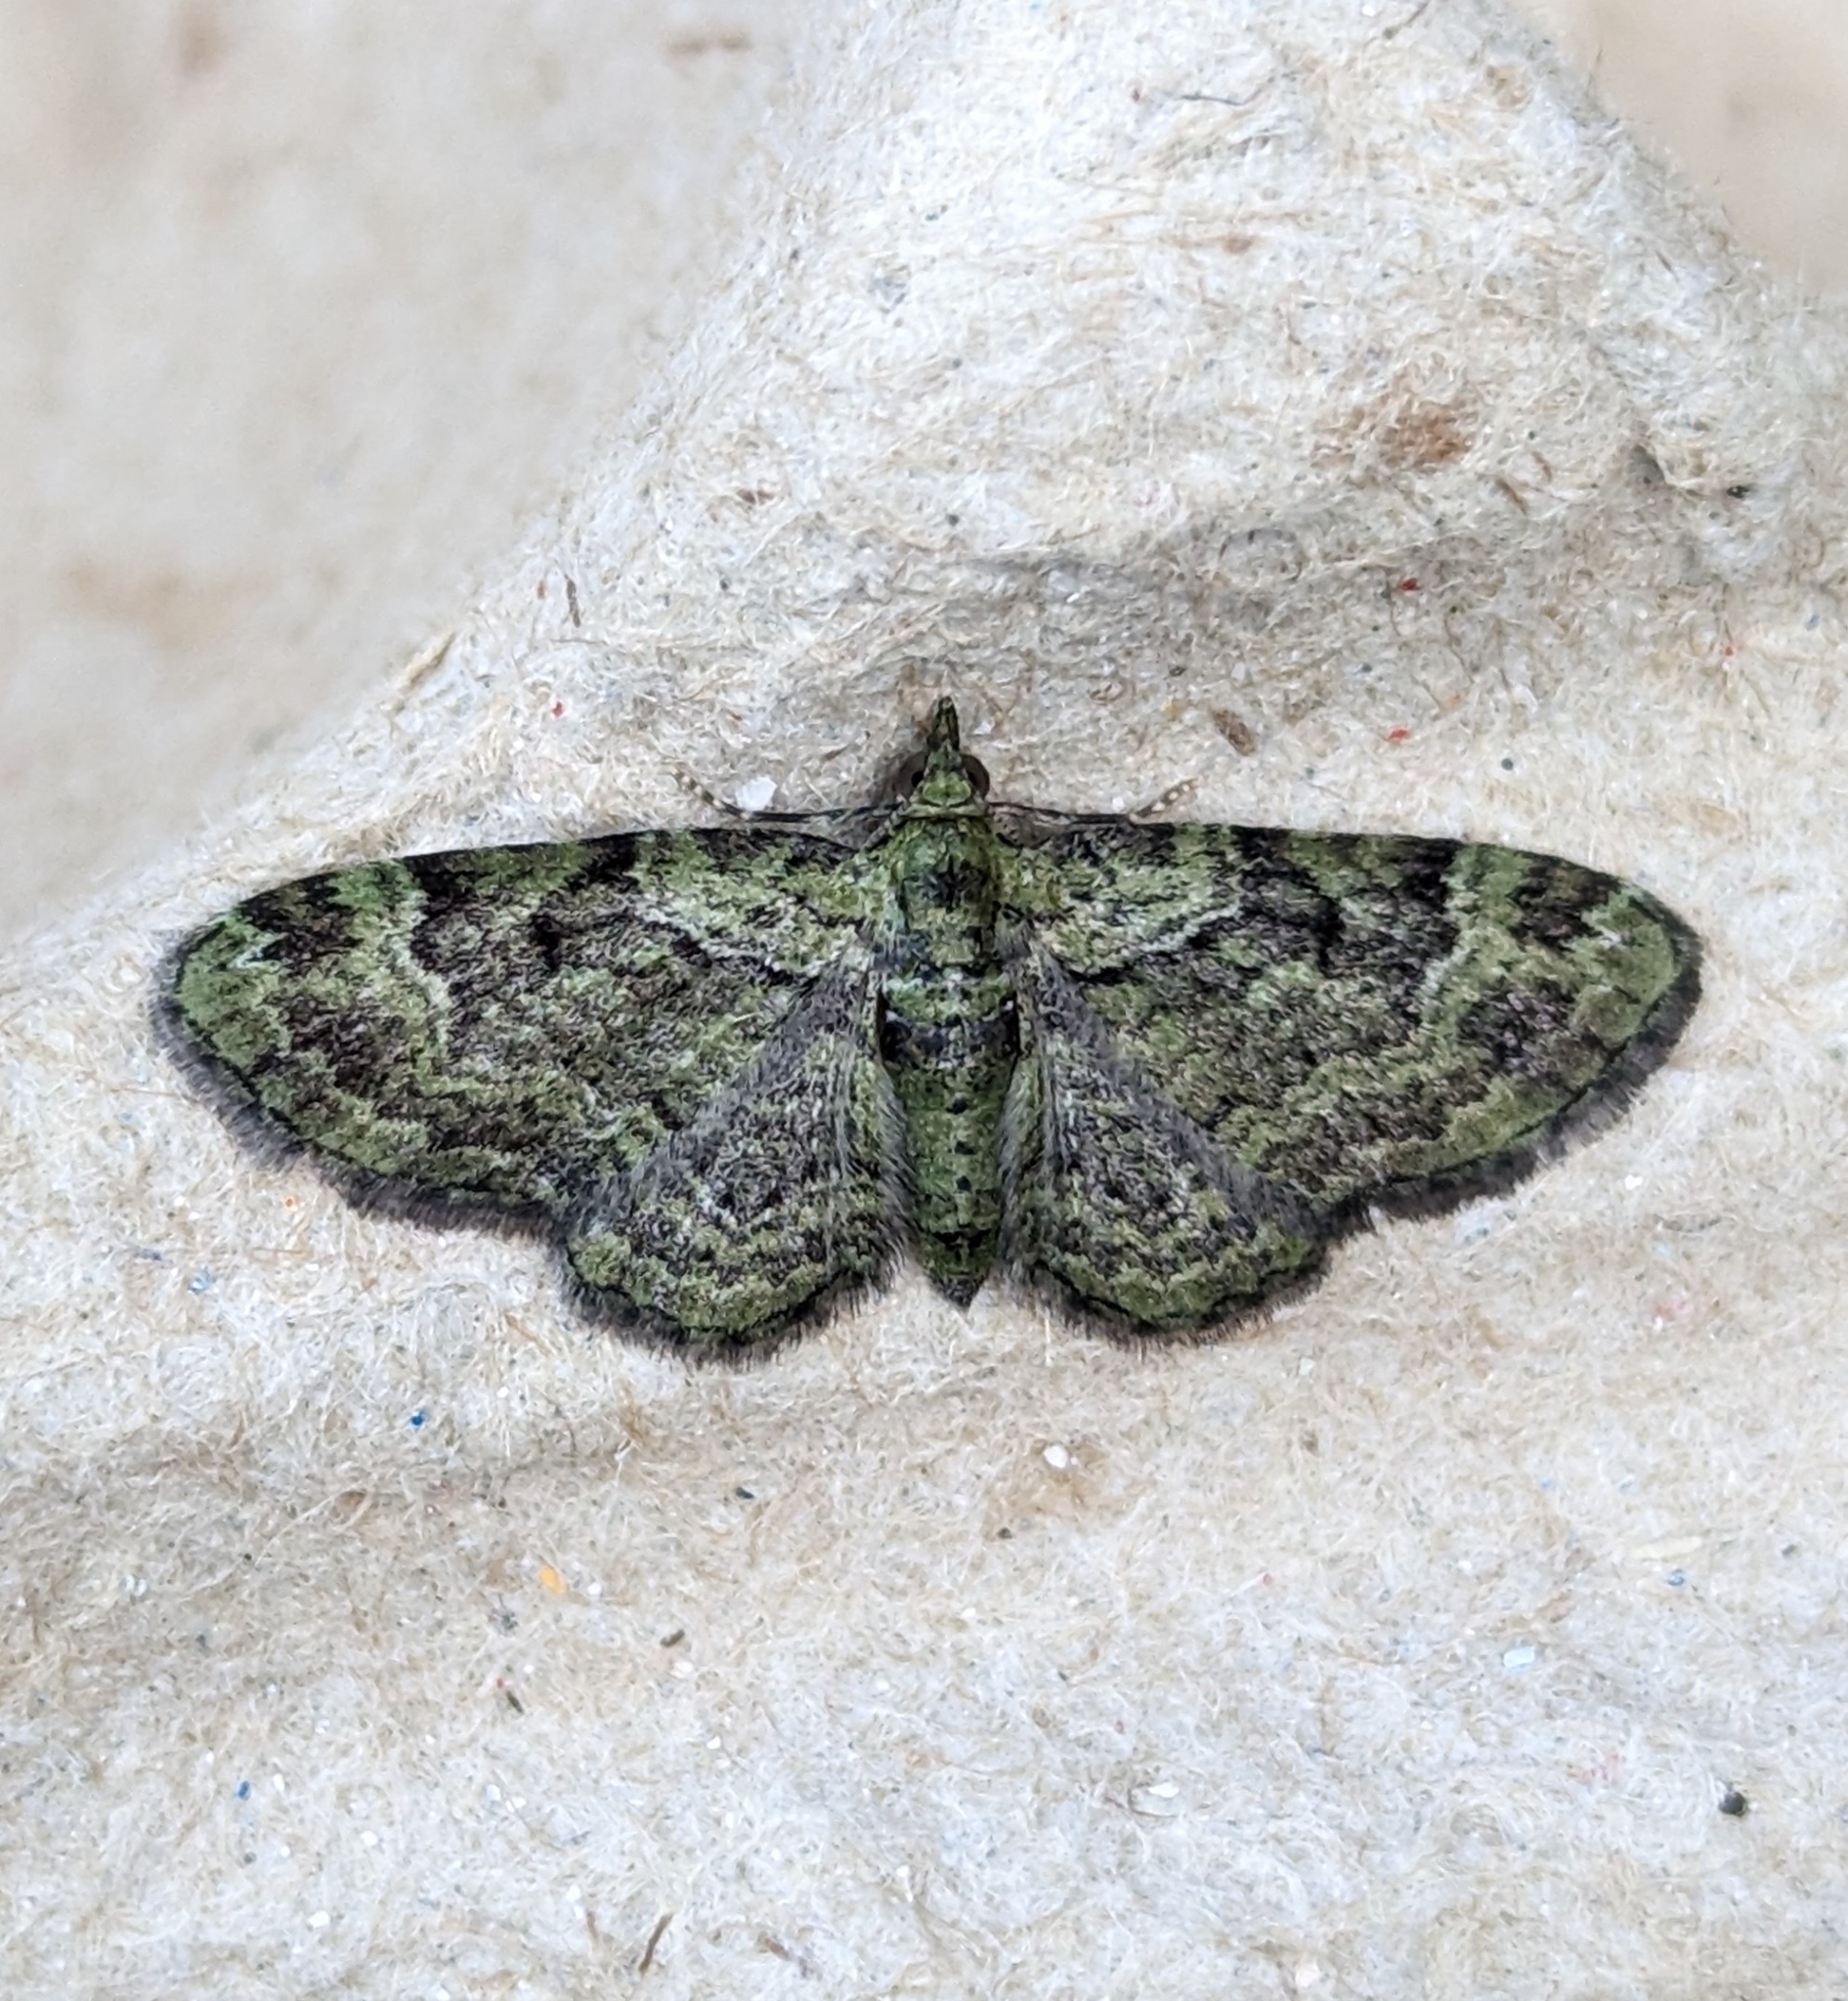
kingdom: Animalia
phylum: Arthropoda
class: Insecta
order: Lepidoptera
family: Geometridae
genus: Pasiphila
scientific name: Pasiphila rectangulata
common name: Green pug
